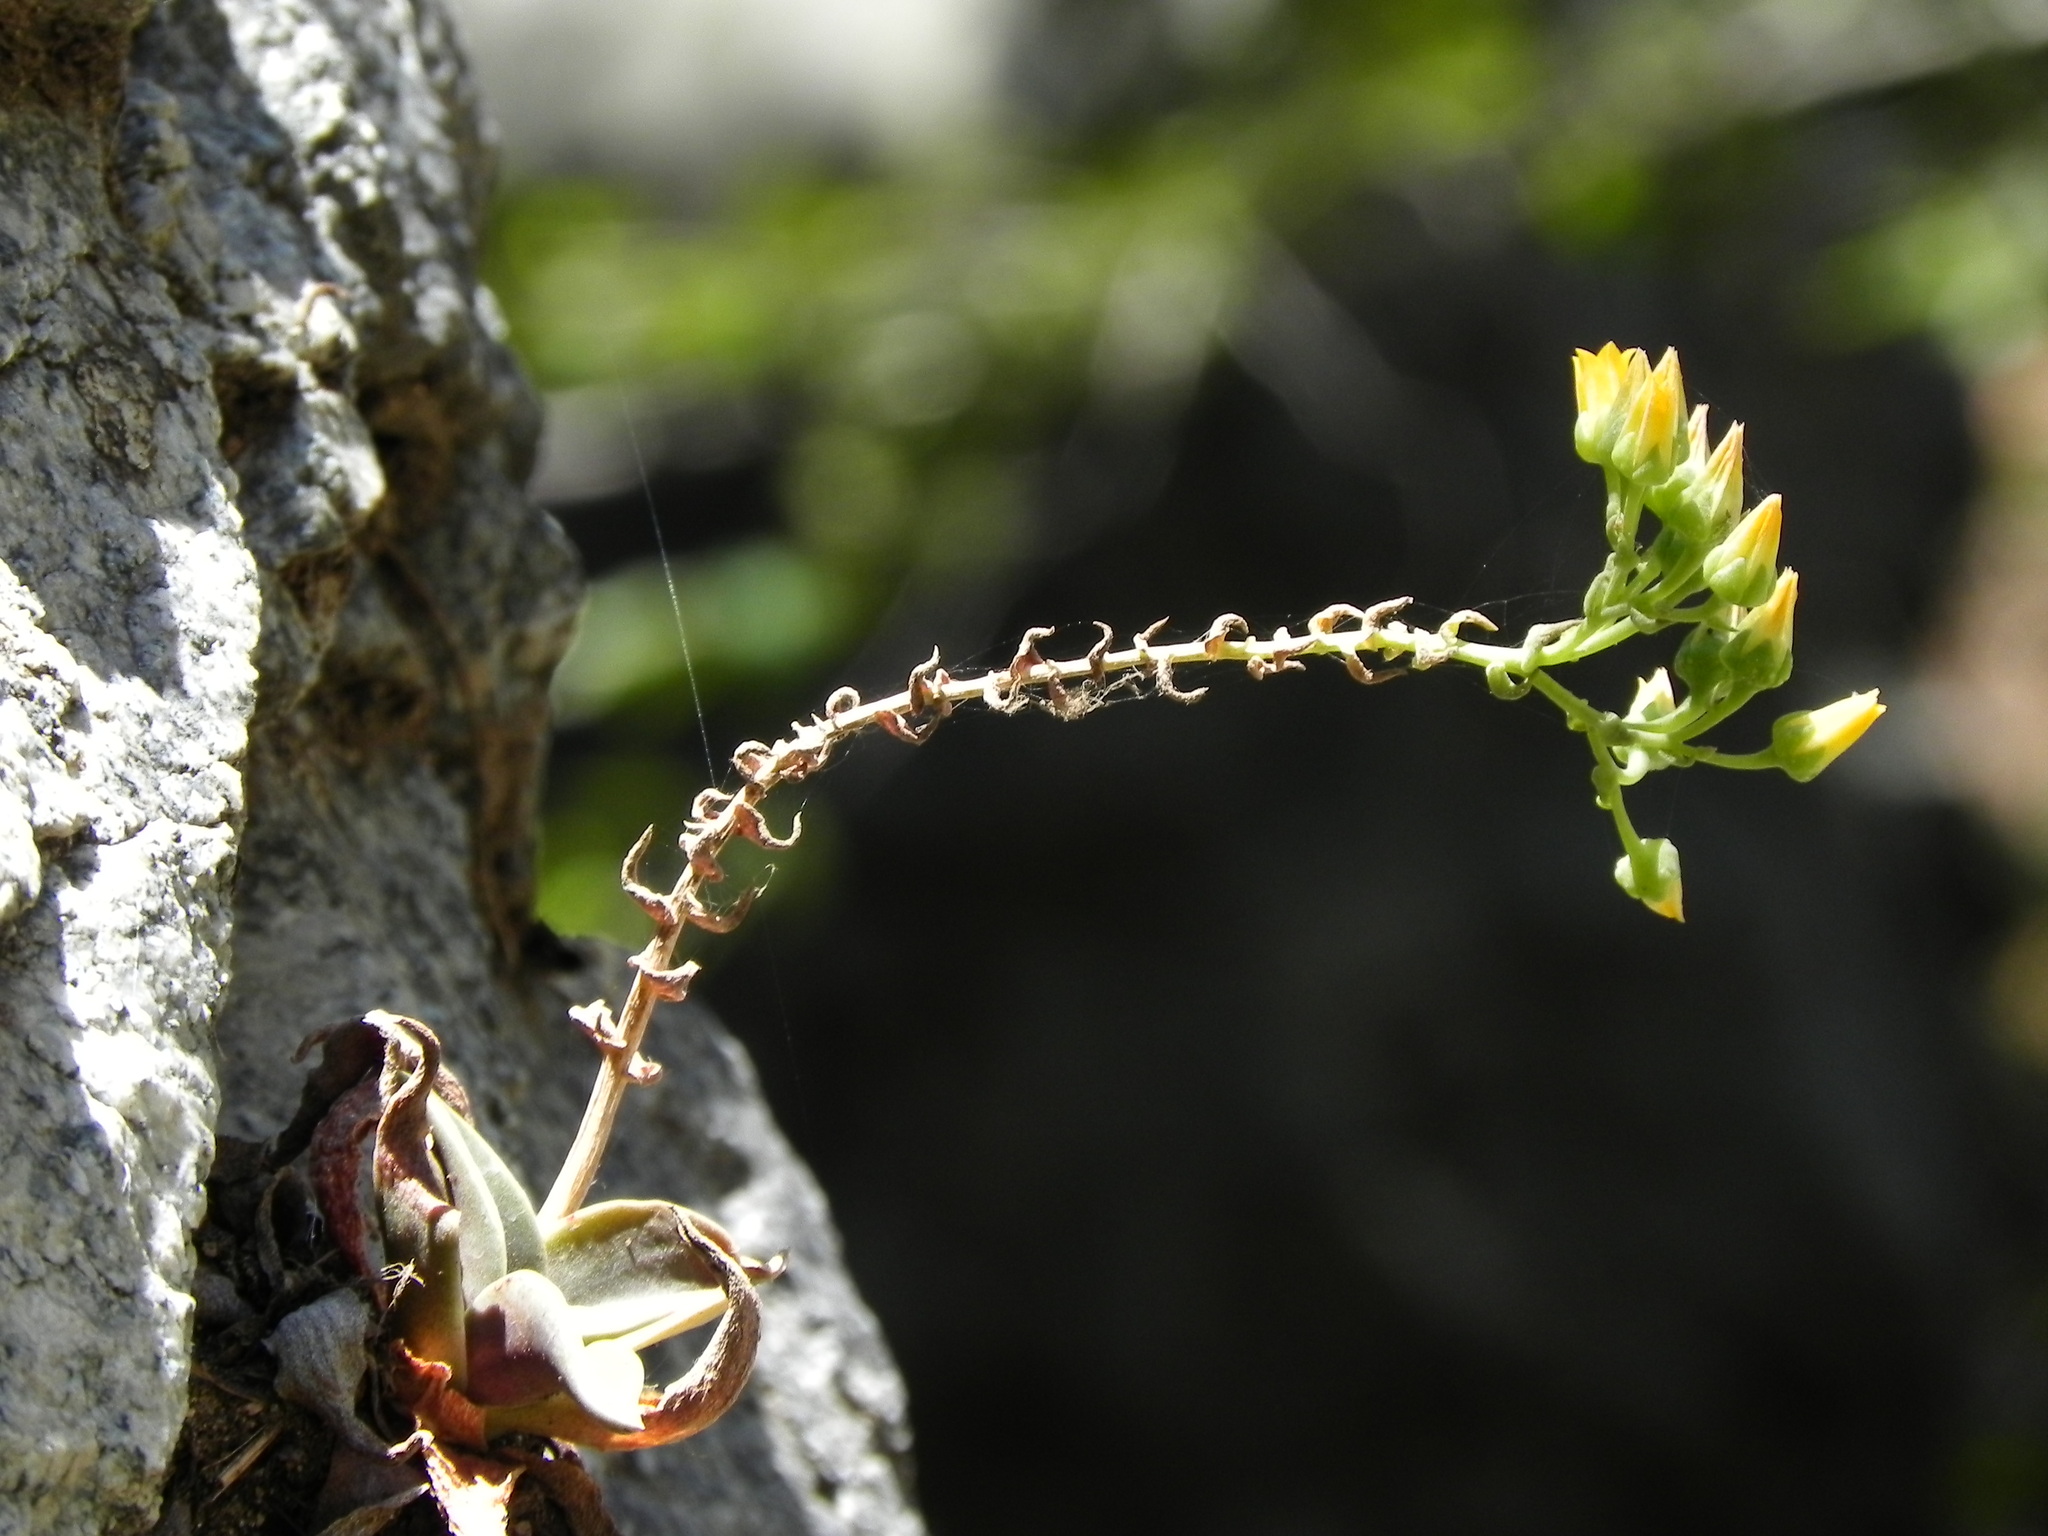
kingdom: Plantae
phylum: Tracheophyta
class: Magnoliopsida
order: Saxifragales
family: Crassulaceae
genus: Dudleya
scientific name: Dudleya cymosa
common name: Canyon dudleya
